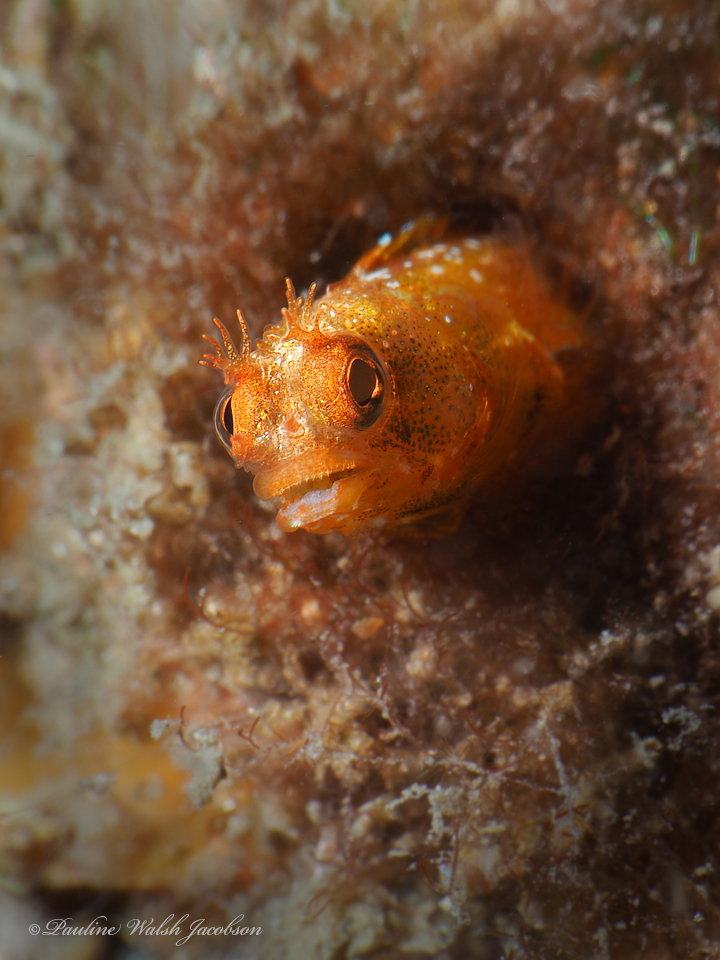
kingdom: Animalia
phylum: Chordata
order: Perciformes
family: Chaenopsidae
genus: Acanthemblemaria
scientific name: Acanthemblemaria aspera
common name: Roughhead blenny
